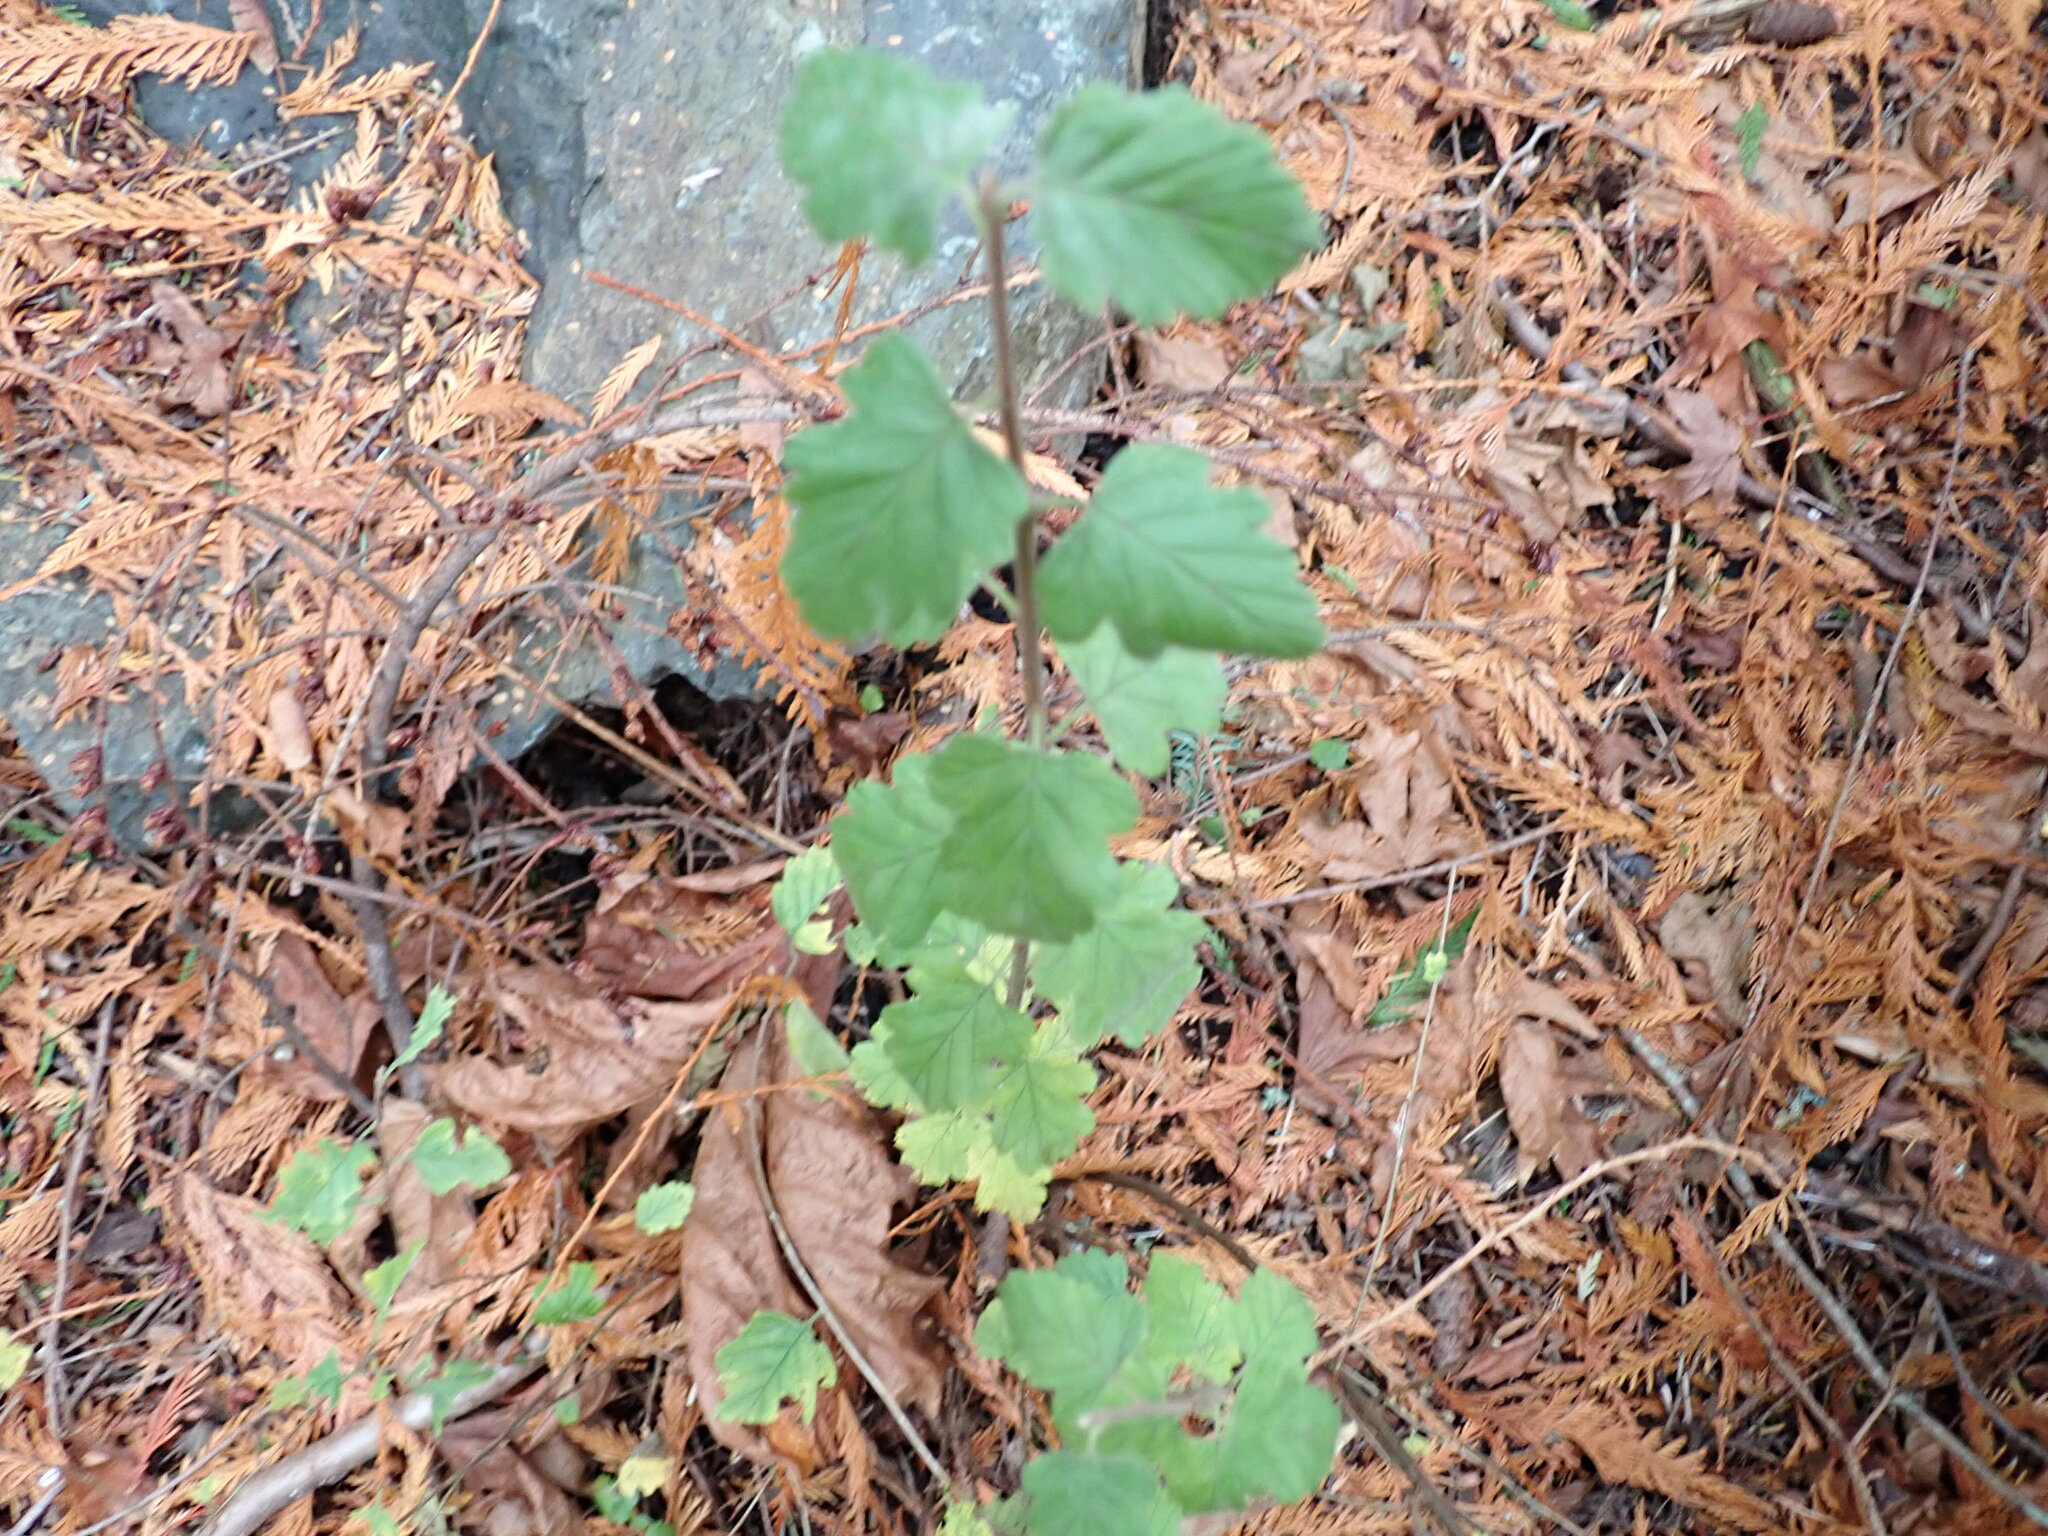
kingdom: Plantae
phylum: Tracheophyta
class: Magnoliopsida
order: Rosales
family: Rosaceae
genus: Holodiscus
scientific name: Holodiscus discolor
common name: Oceanspray
